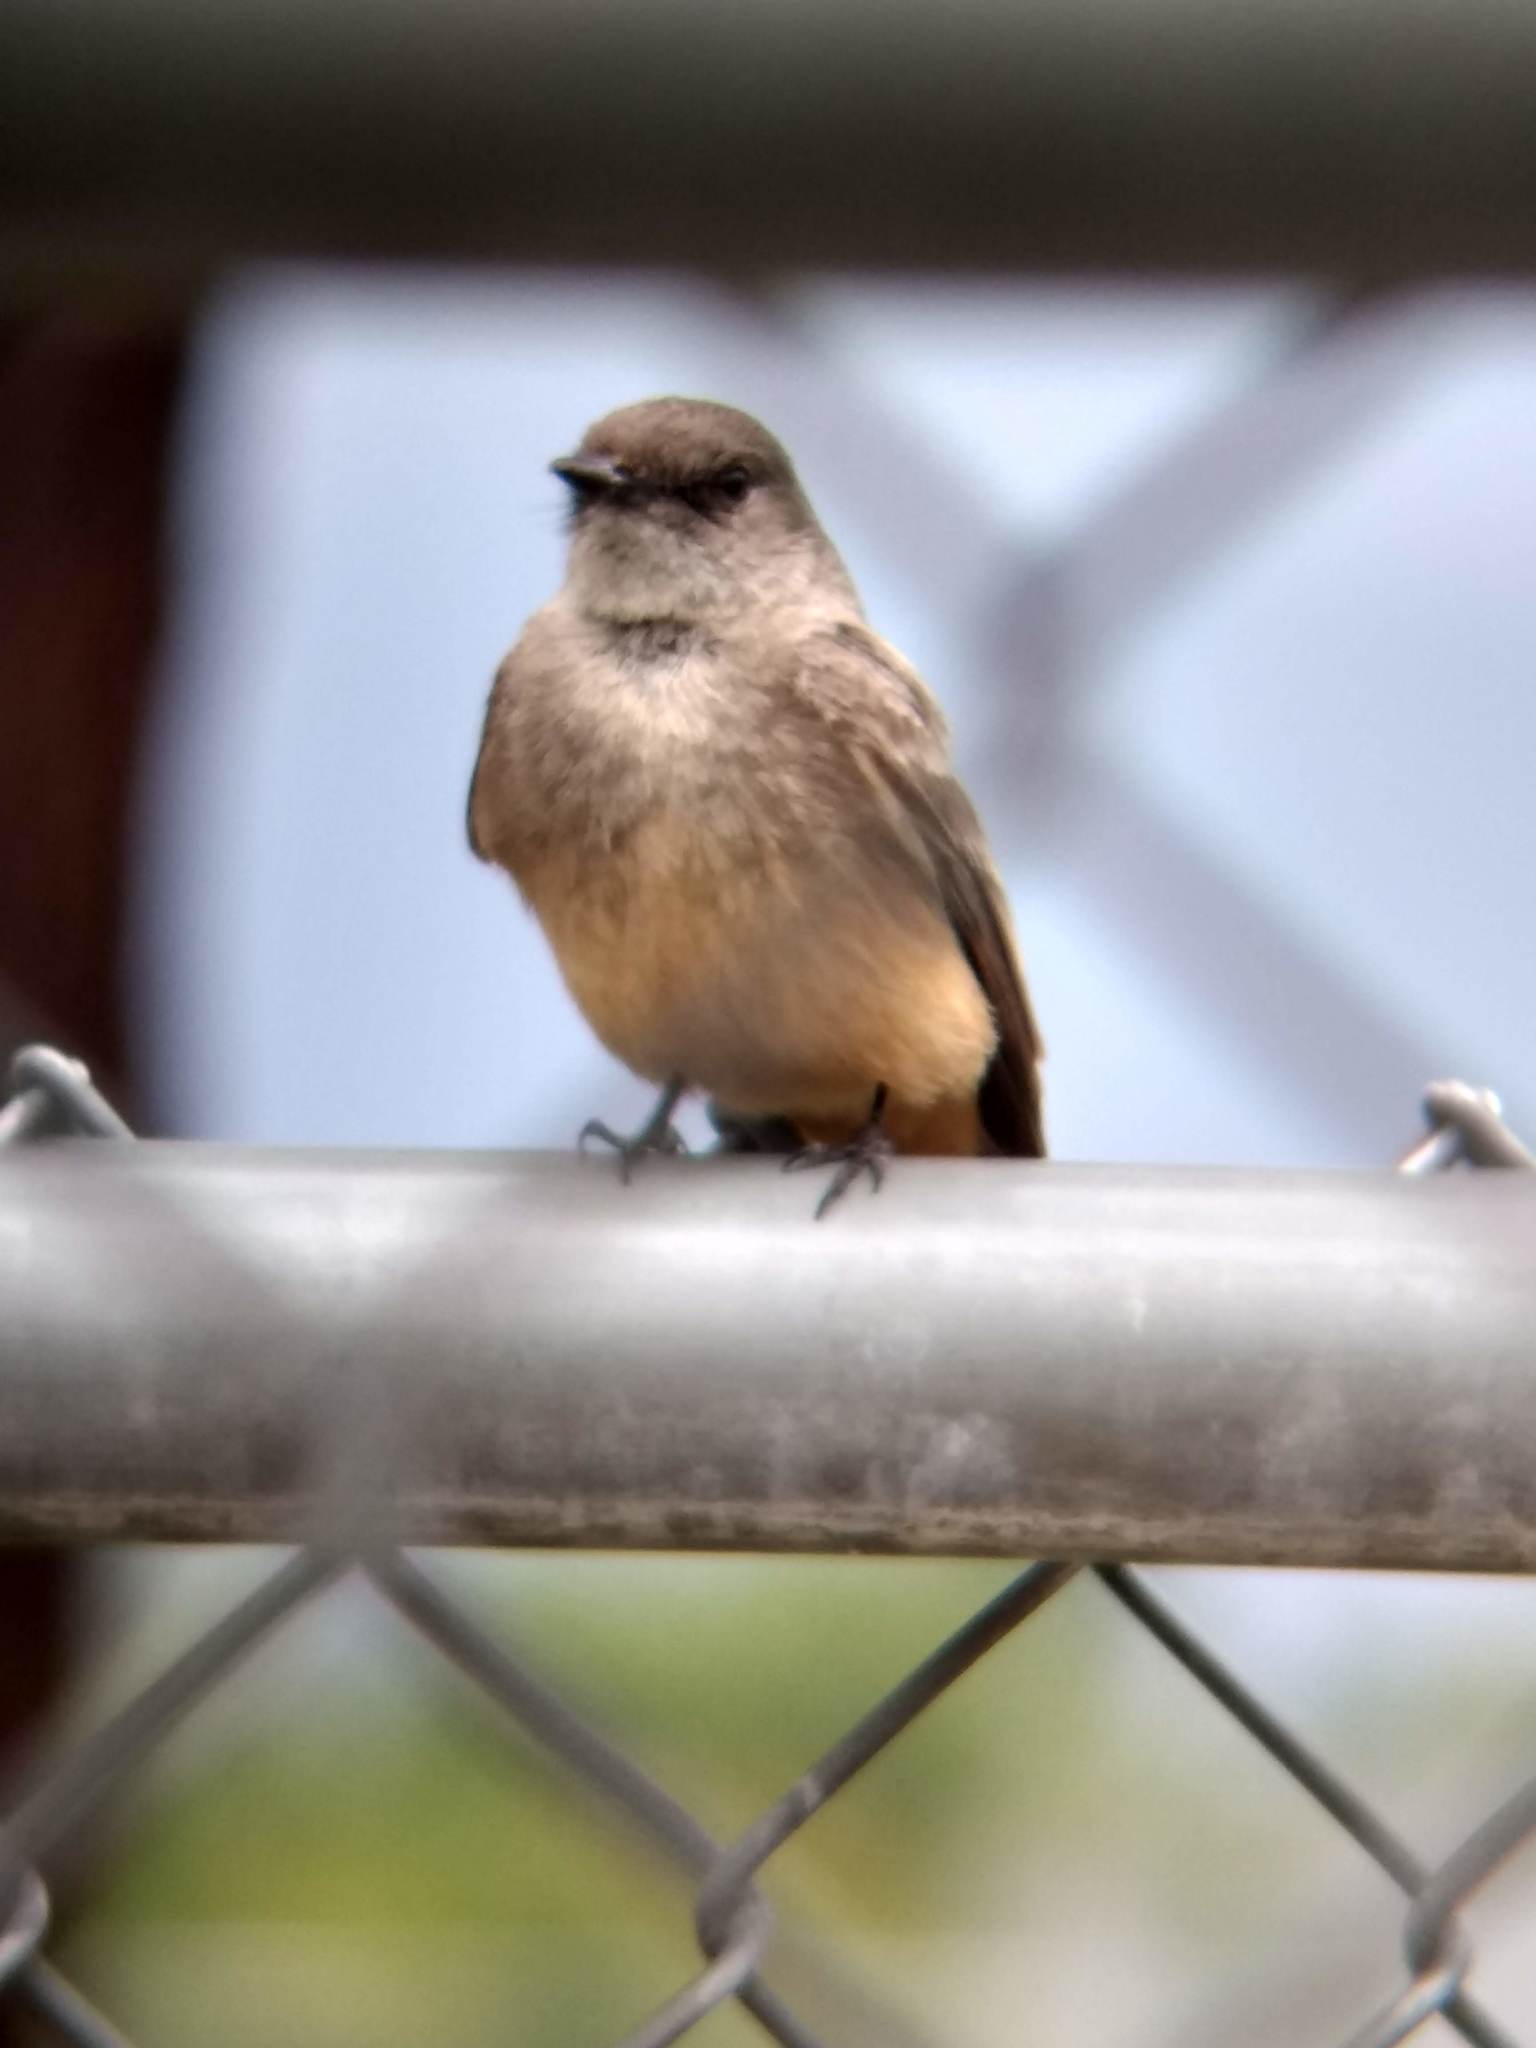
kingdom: Animalia
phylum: Chordata
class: Aves
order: Passeriformes
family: Tyrannidae
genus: Sayornis
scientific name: Sayornis saya
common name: Say's phoebe
